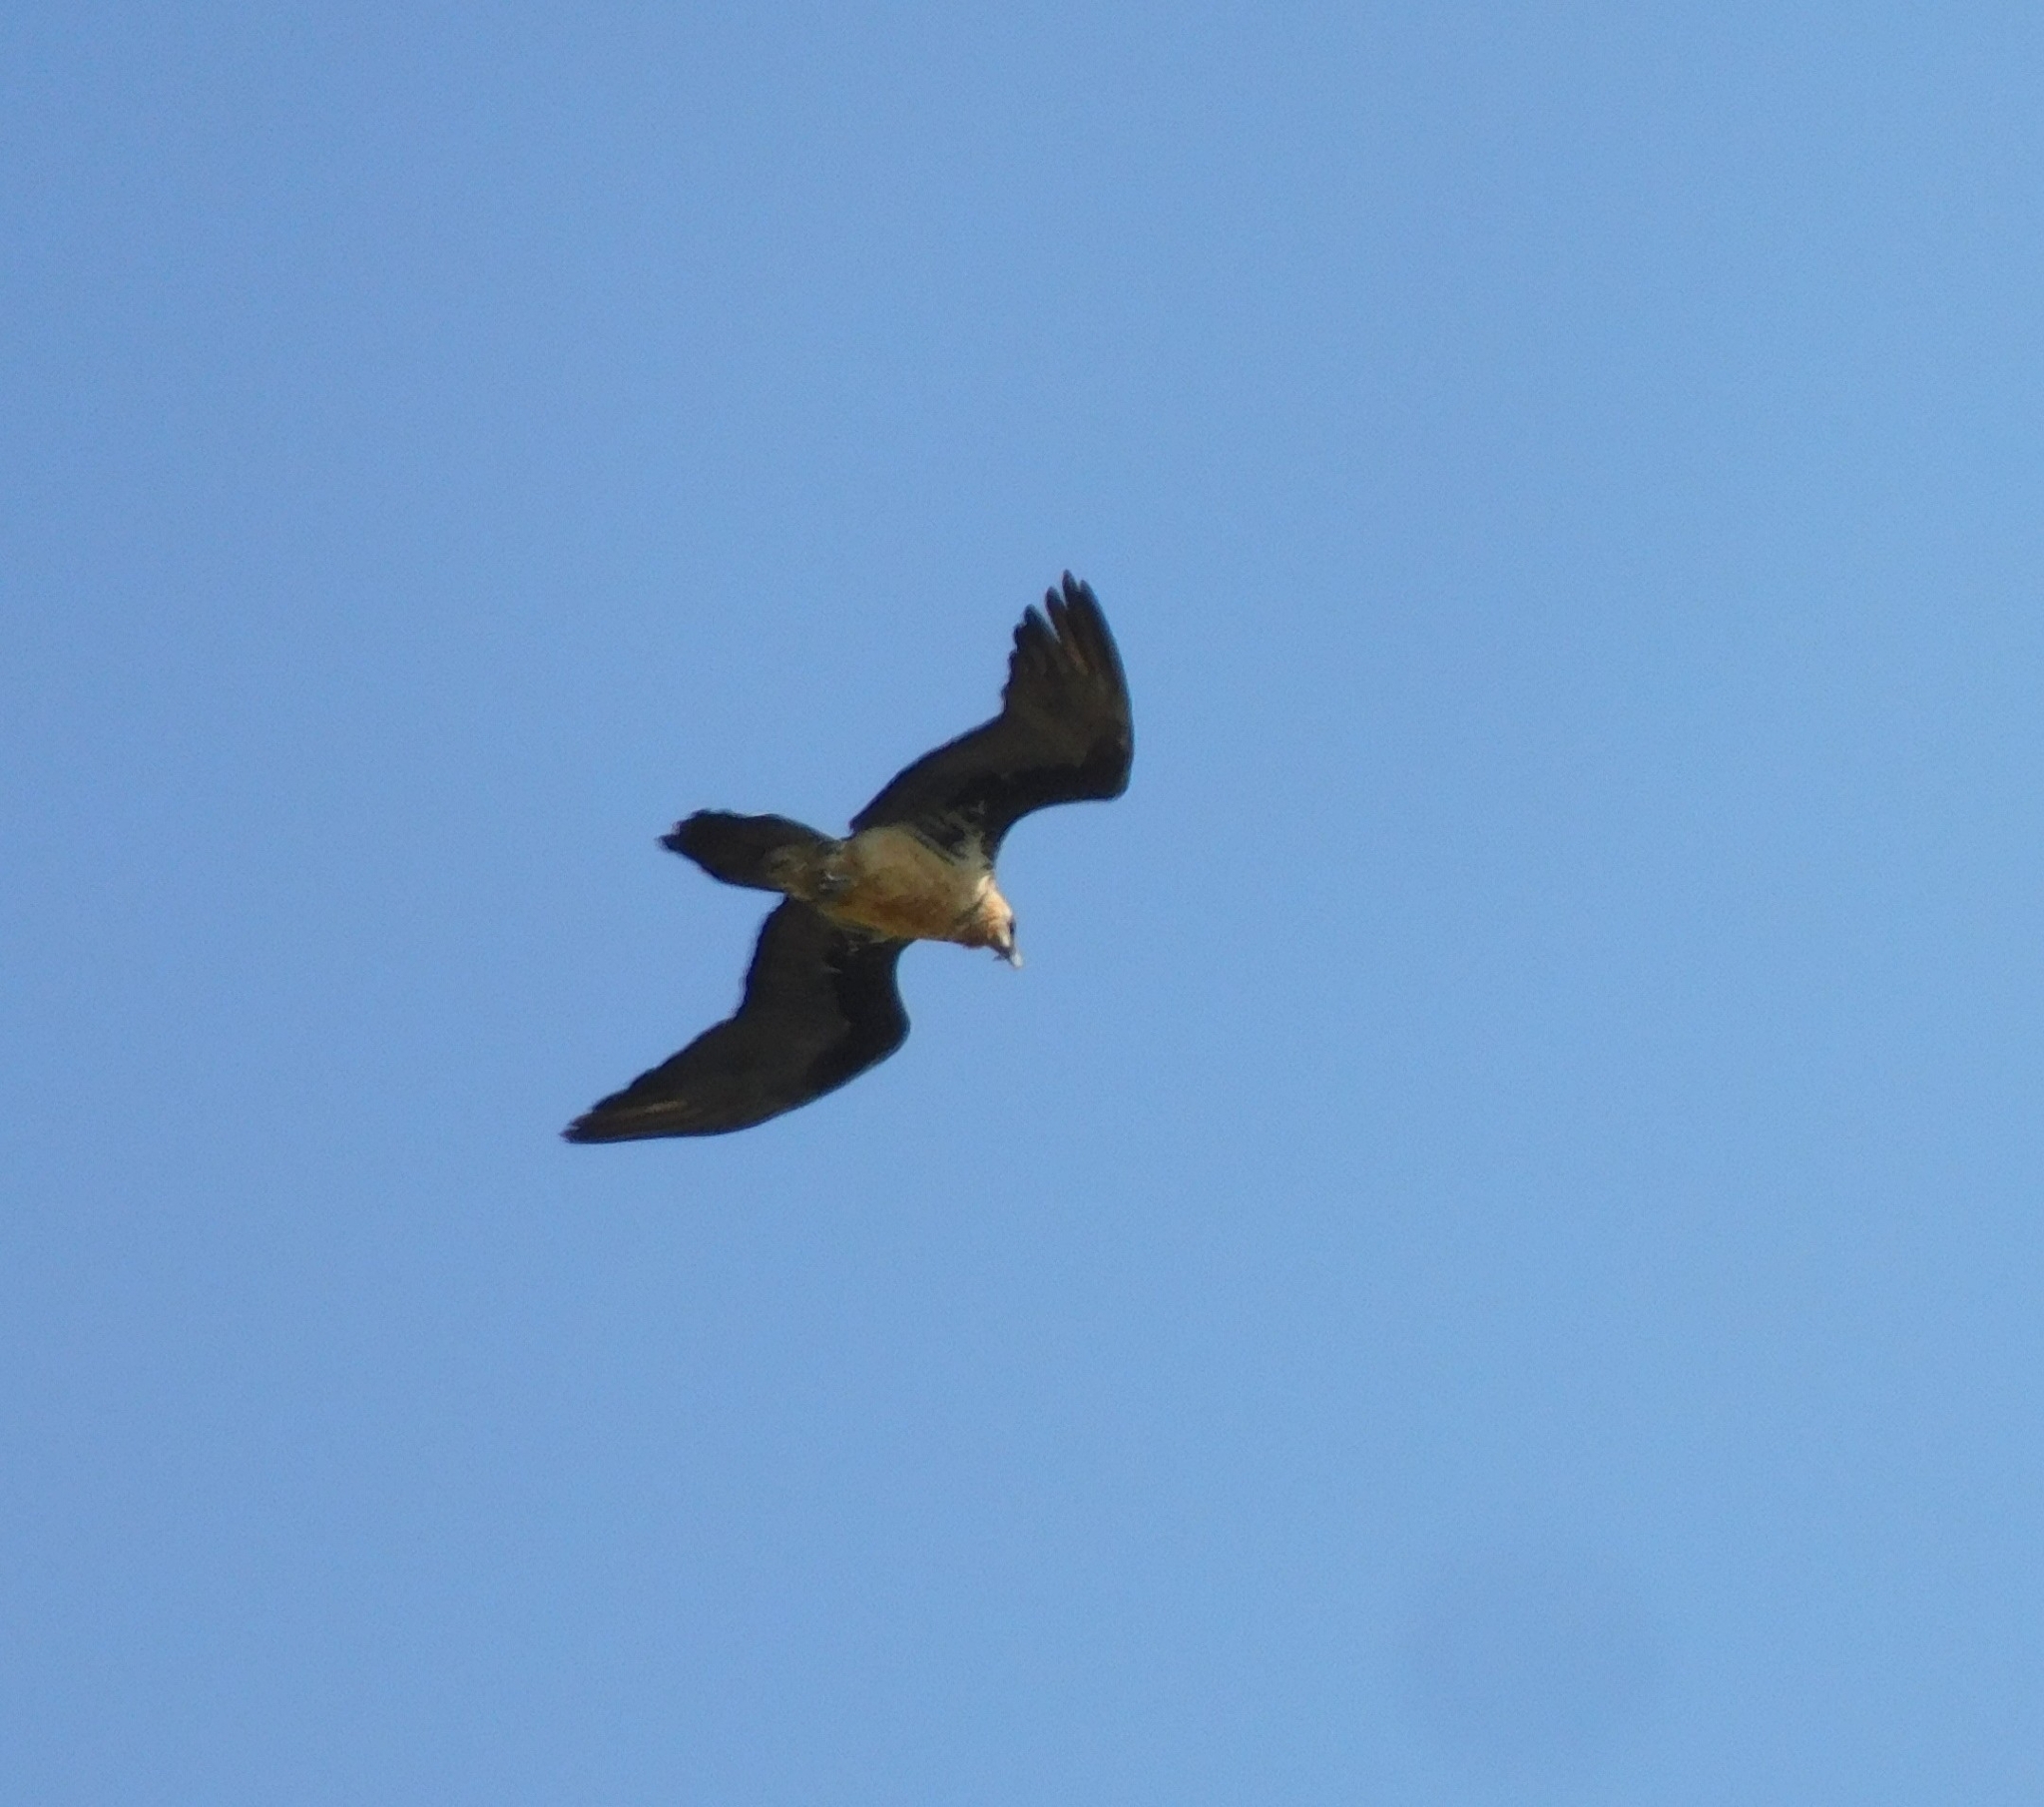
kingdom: Animalia
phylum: Chordata
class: Aves
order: Accipitriformes
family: Accipitridae
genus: Gypaetus
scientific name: Gypaetus barbatus
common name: Bearded vulture
